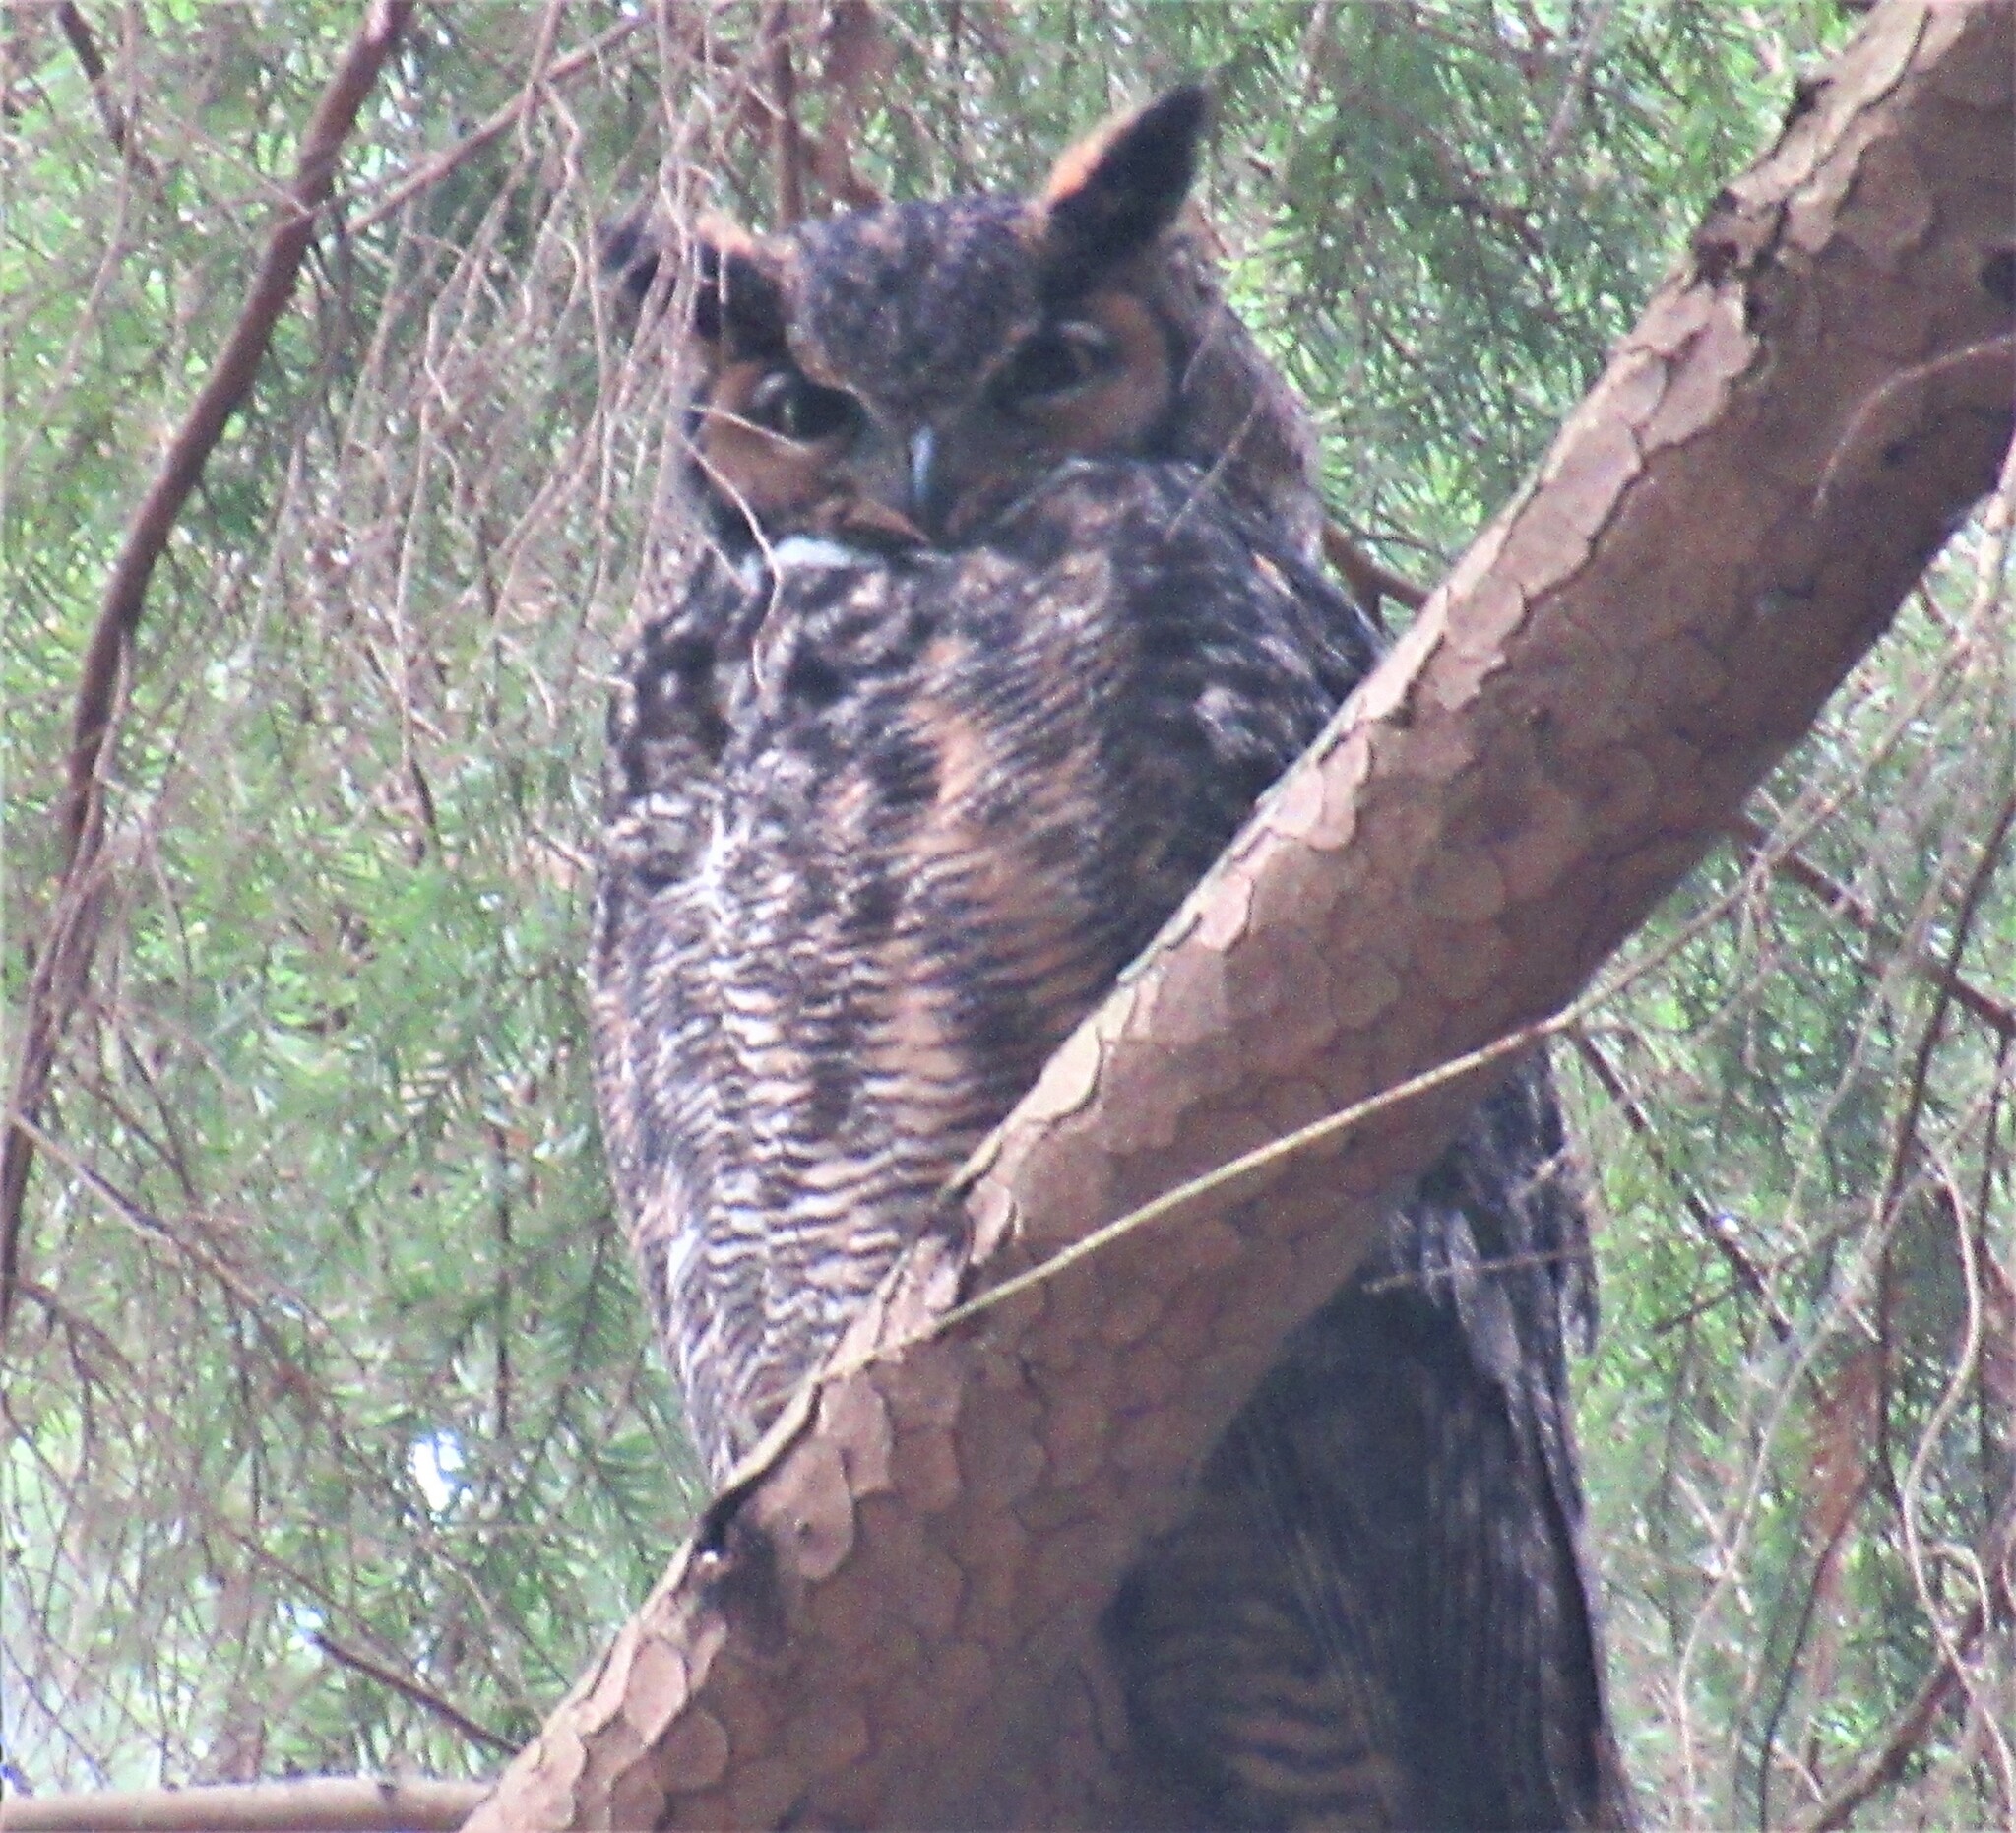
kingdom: Animalia
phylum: Chordata
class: Aves
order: Strigiformes
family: Strigidae
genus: Bubo
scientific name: Bubo virginianus
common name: Great horned owl
